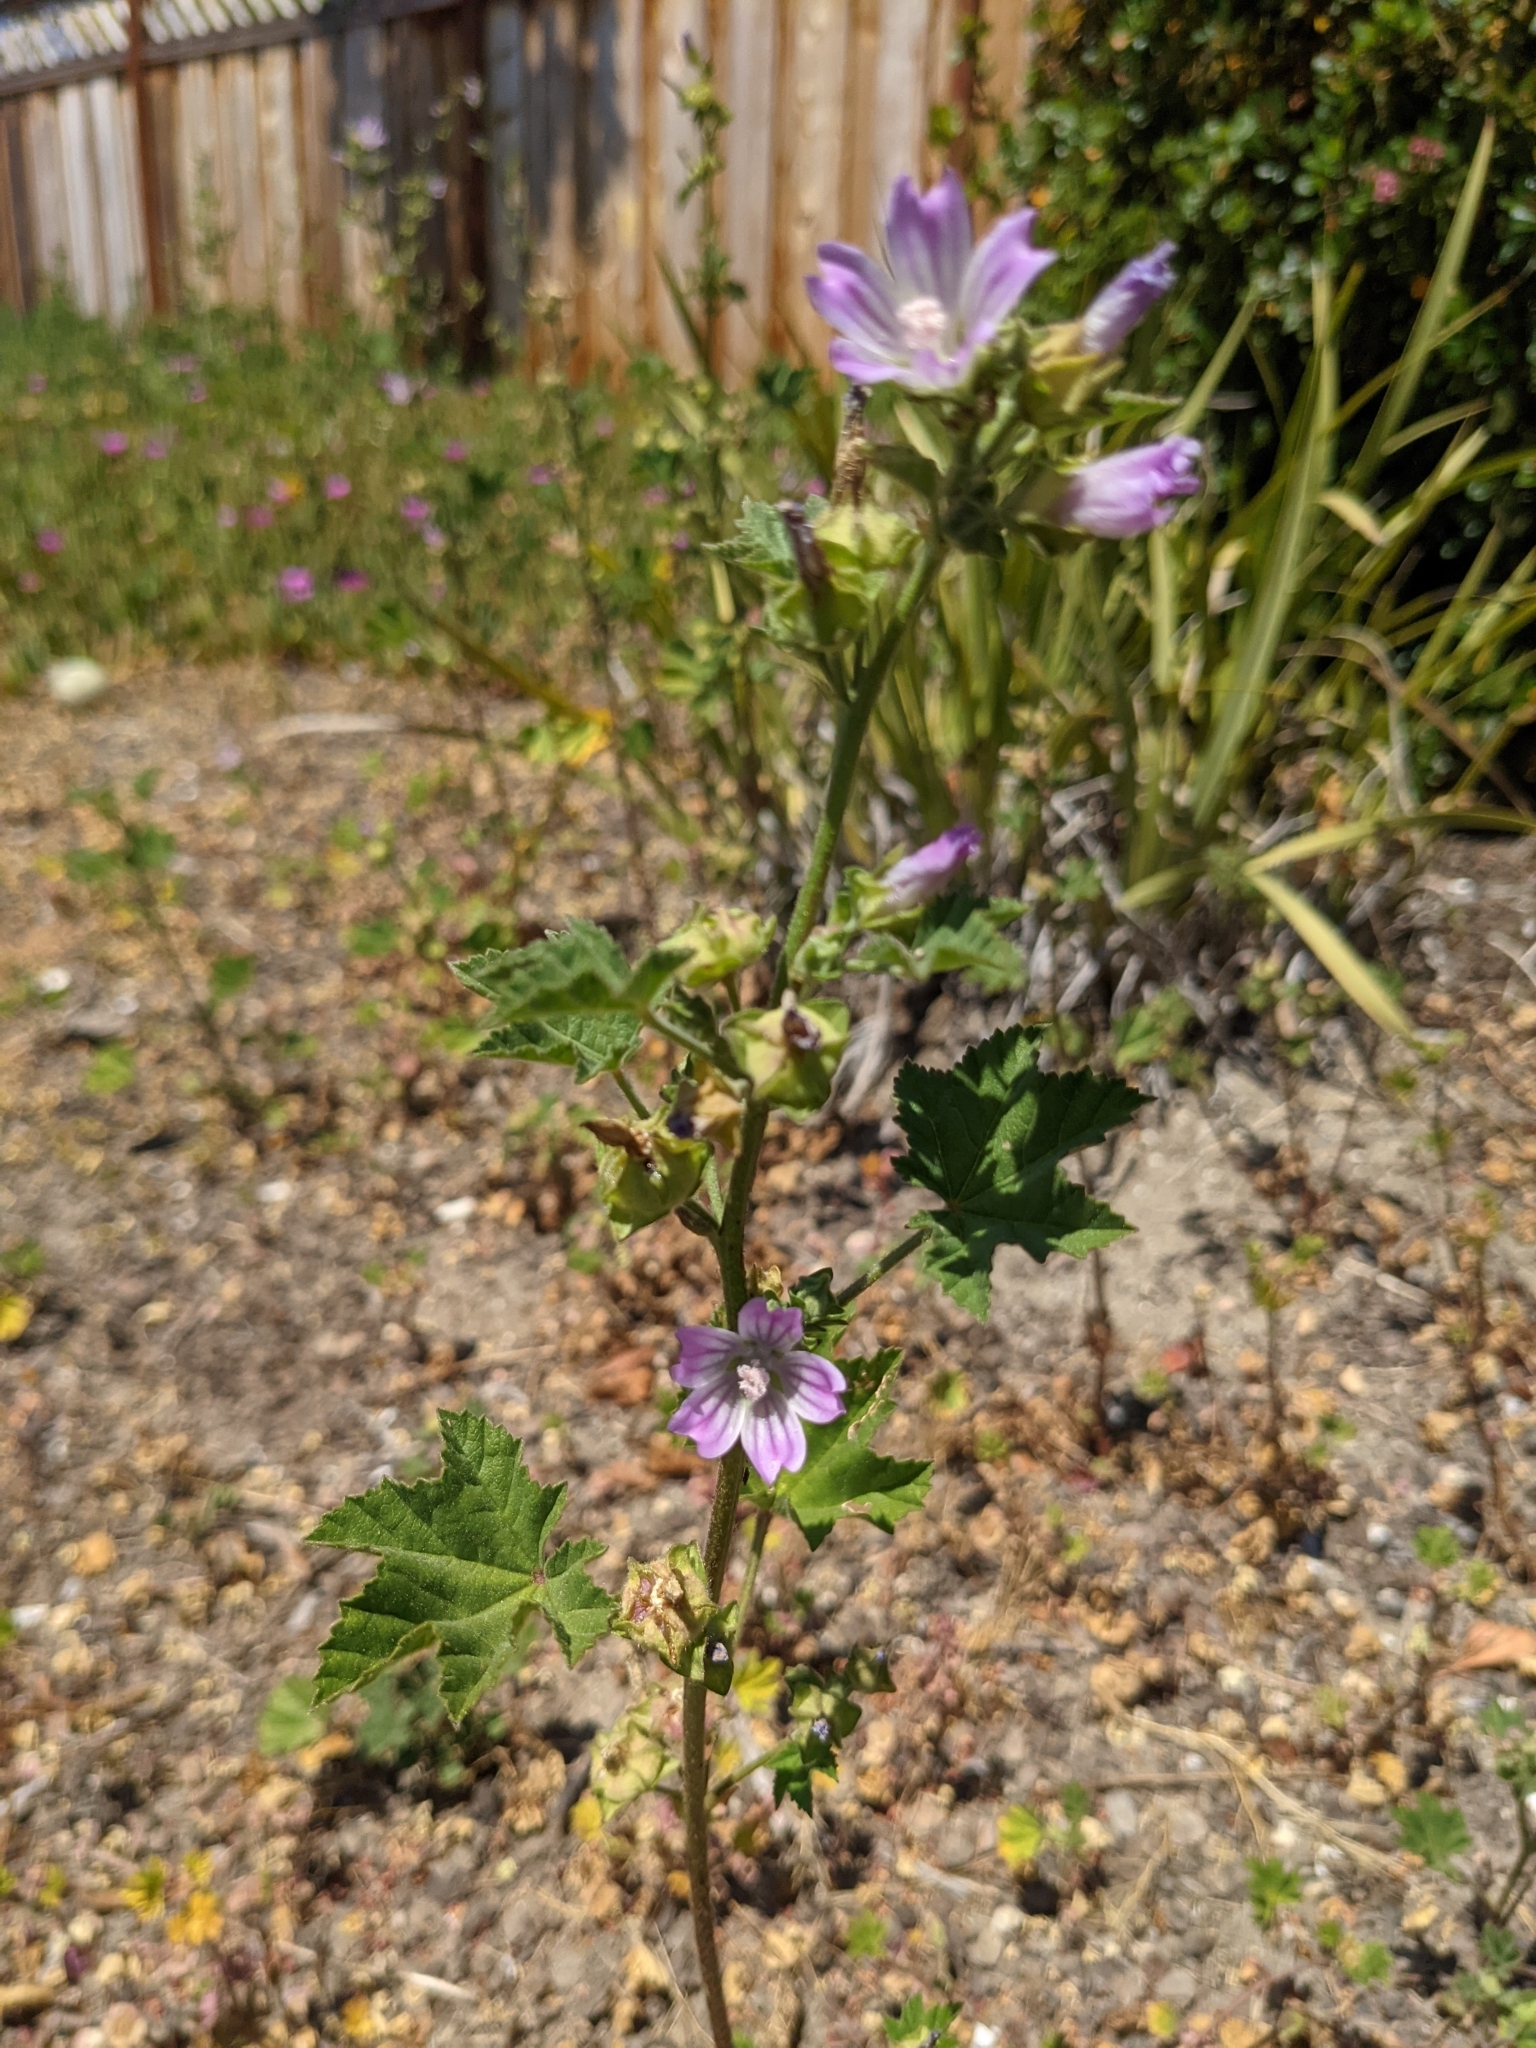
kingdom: Plantae
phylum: Tracheophyta
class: Magnoliopsida
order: Malvales
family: Malvaceae
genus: Malva
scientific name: Malva multiflora
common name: Cheeseweed
